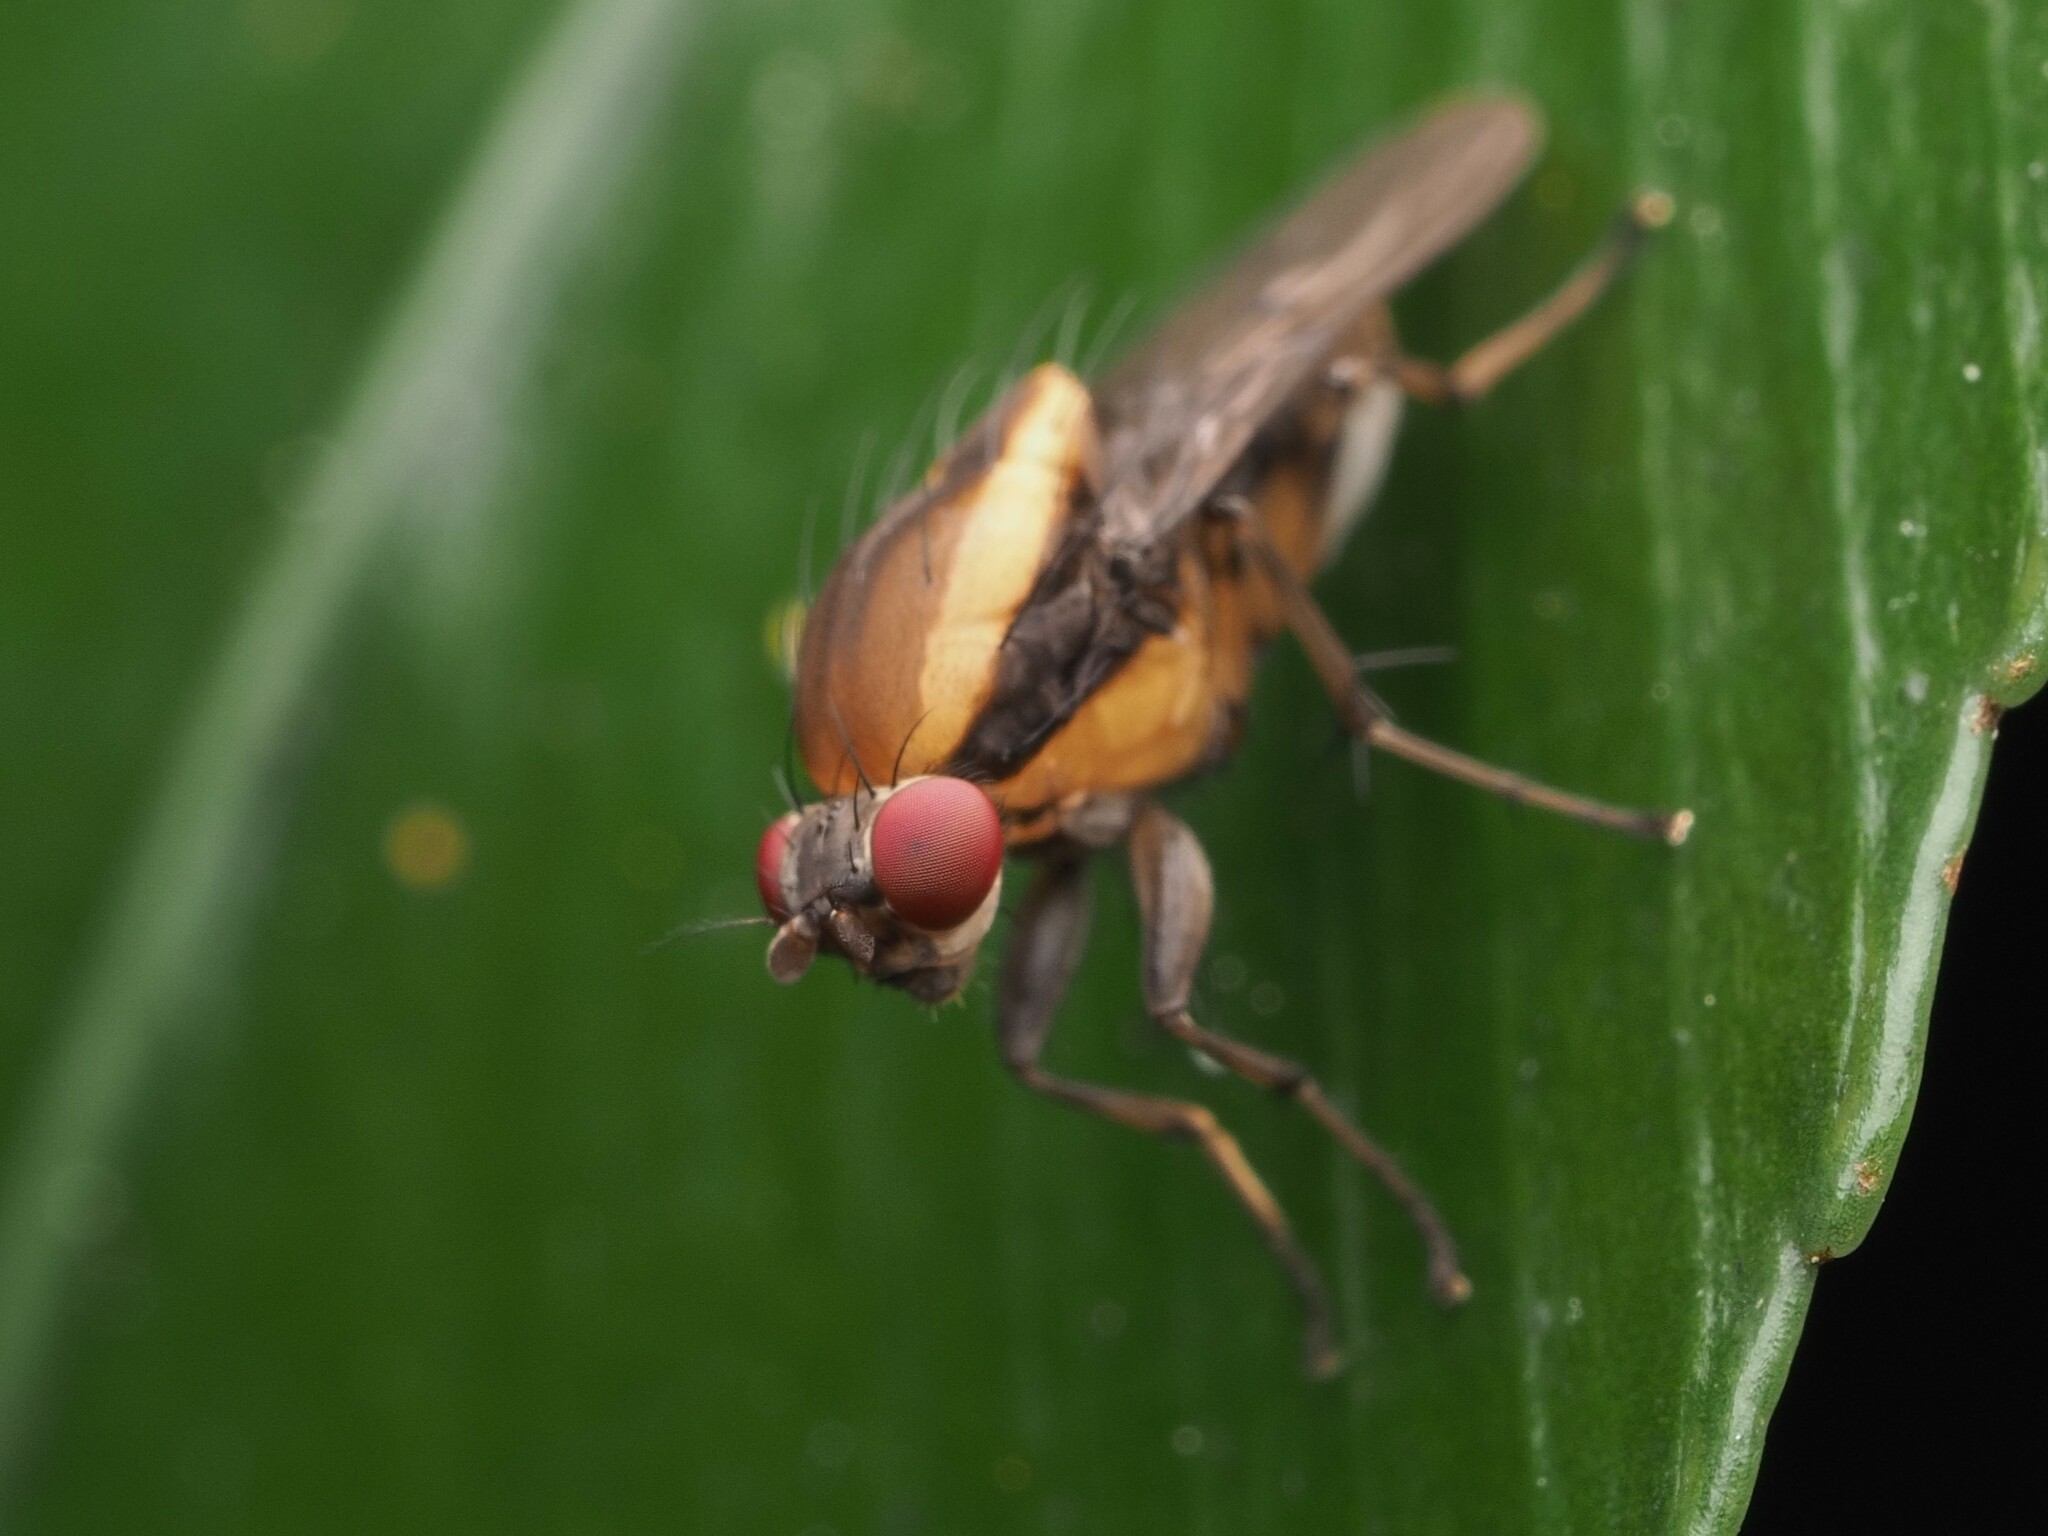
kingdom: Animalia
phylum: Arthropoda
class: Insecta
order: Diptera
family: Heleomyzidae
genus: Allophylopsis
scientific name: Allophylopsis scutellata
